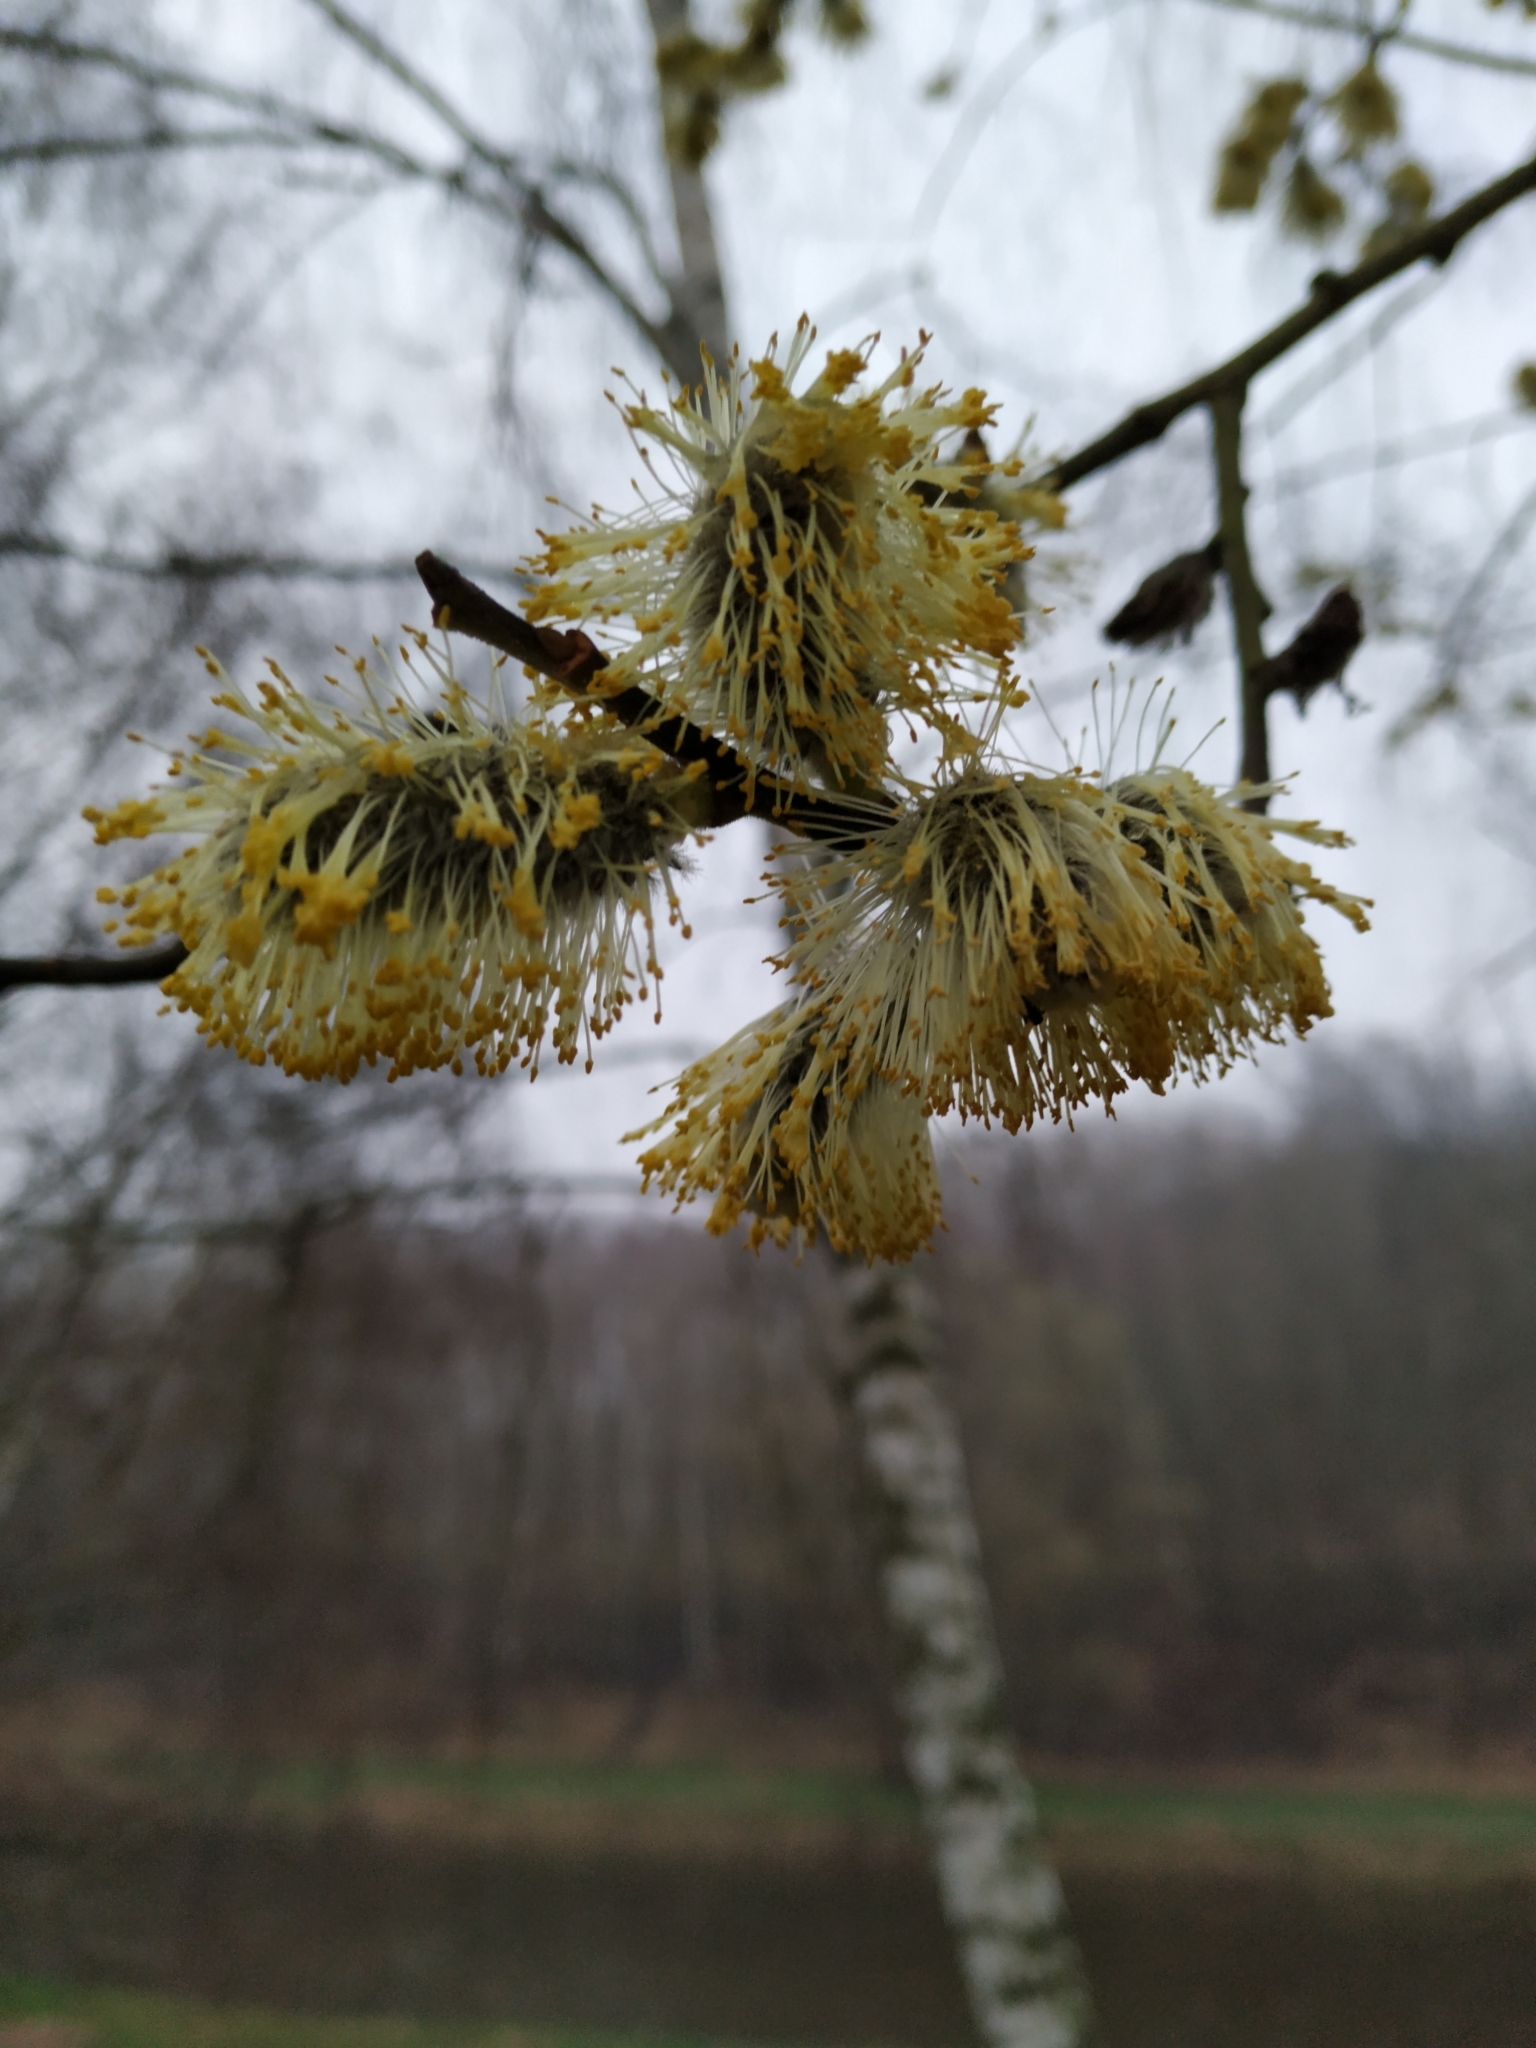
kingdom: Plantae
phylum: Tracheophyta
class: Magnoliopsida
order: Malpighiales
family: Salicaceae
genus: Salix
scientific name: Salix caprea
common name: Goat willow
